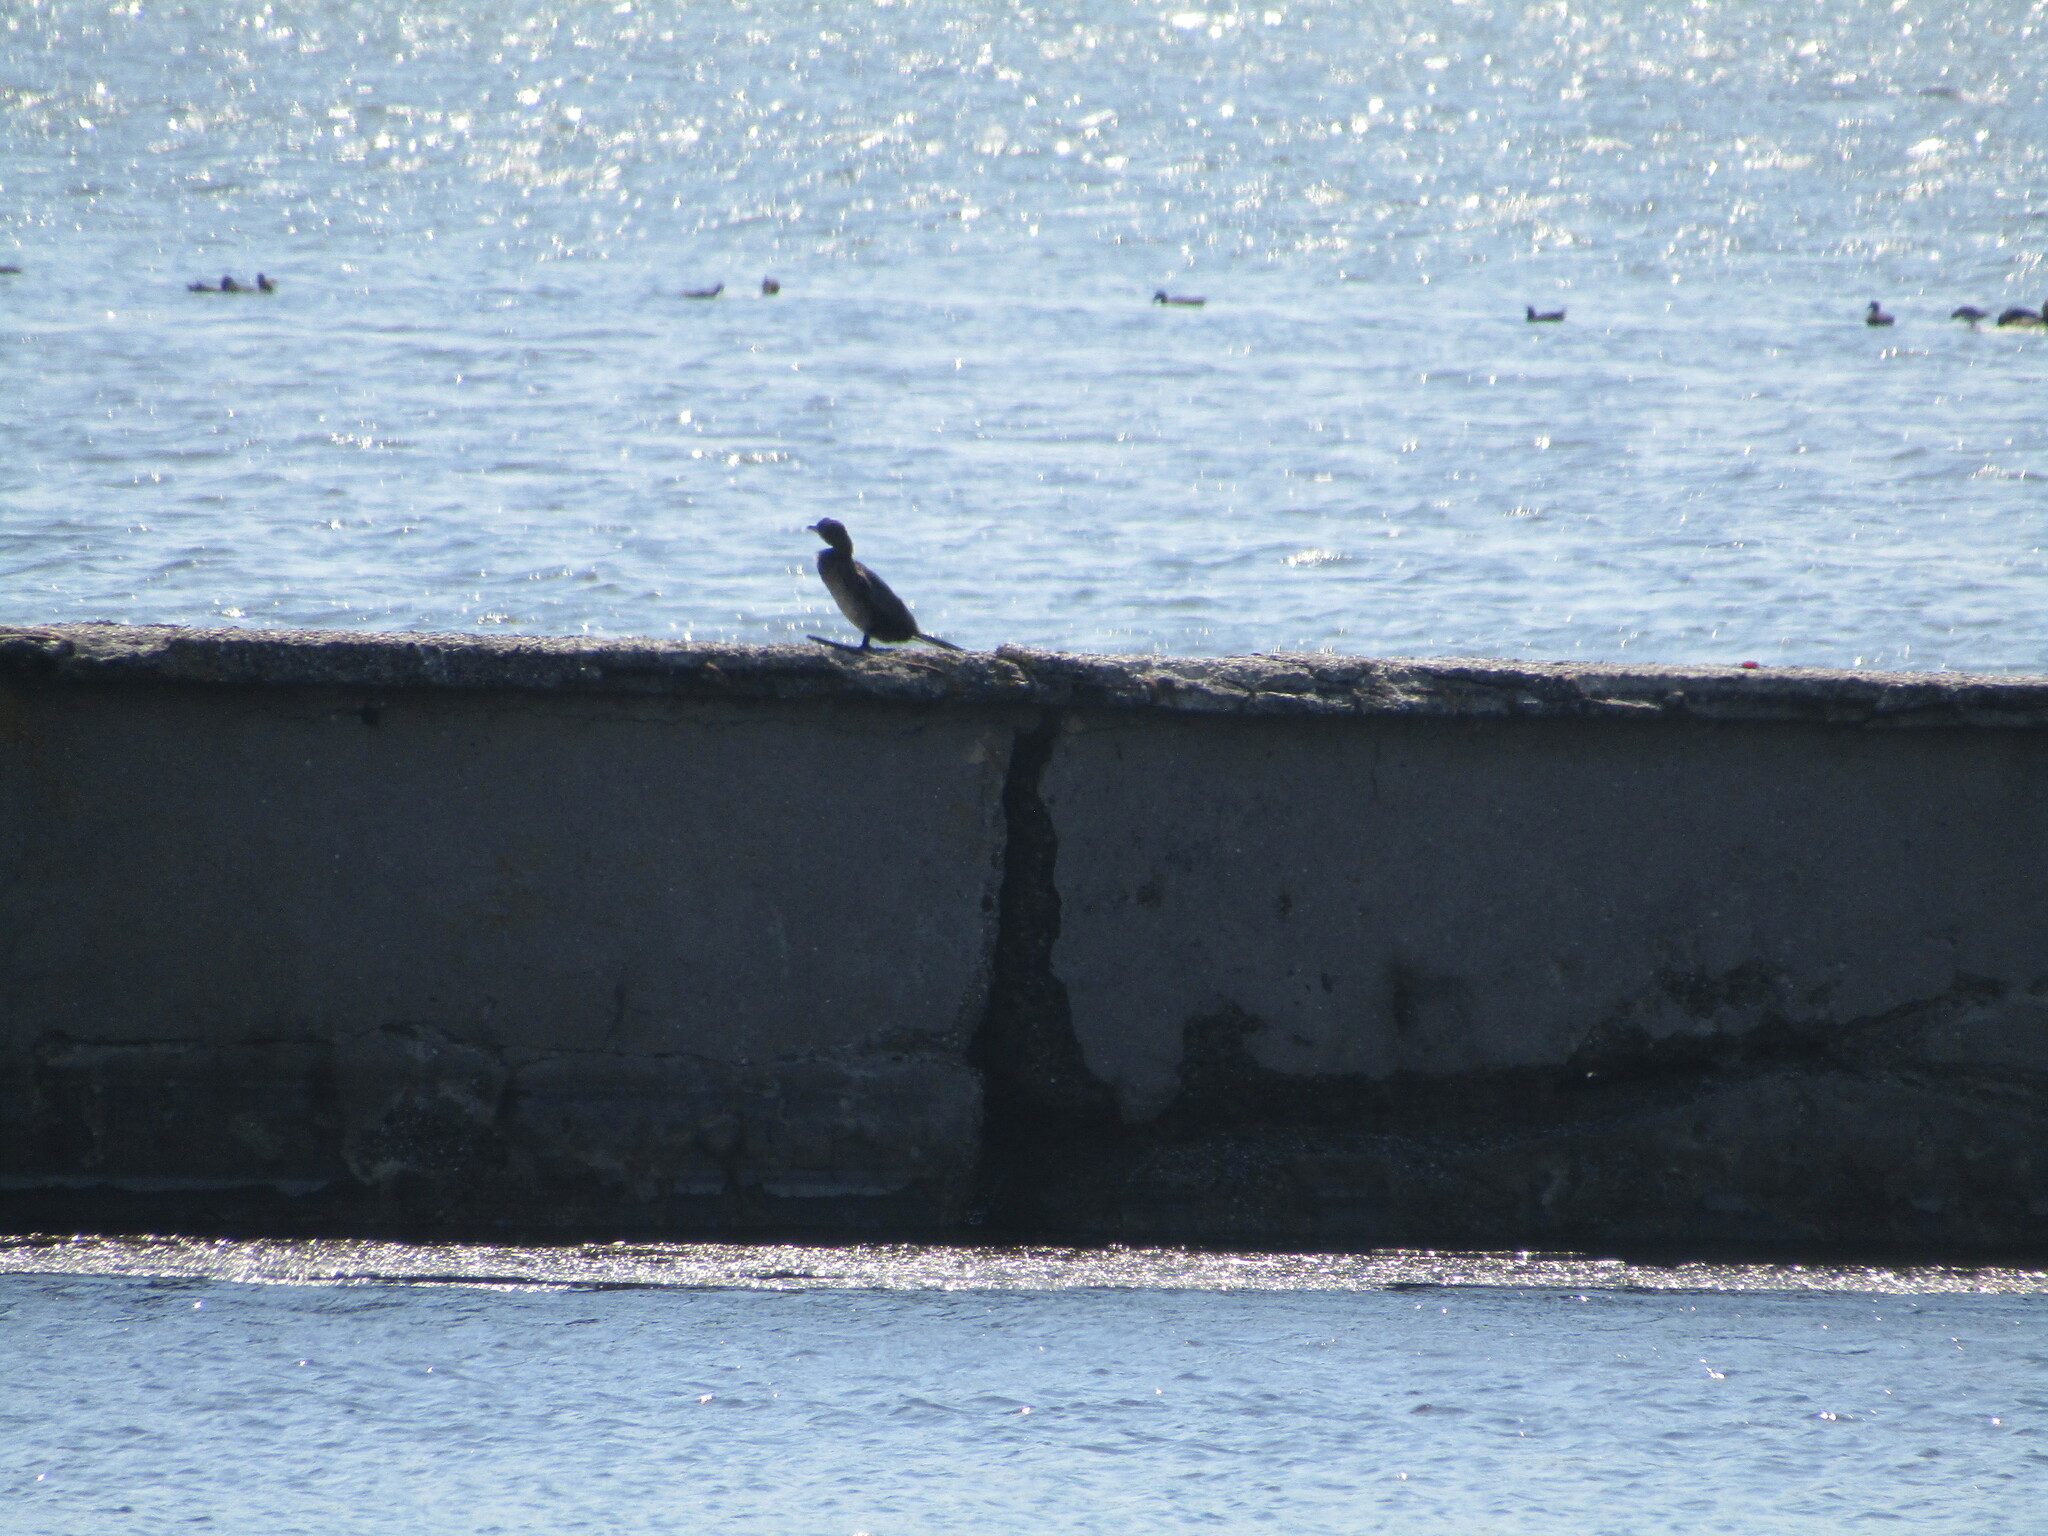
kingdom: Animalia
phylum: Chordata
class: Aves
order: Suliformes
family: Phalacrocoracidae
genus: Microcarbo
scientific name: Microcarbo pygmaeus
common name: Pygmy cormorant
